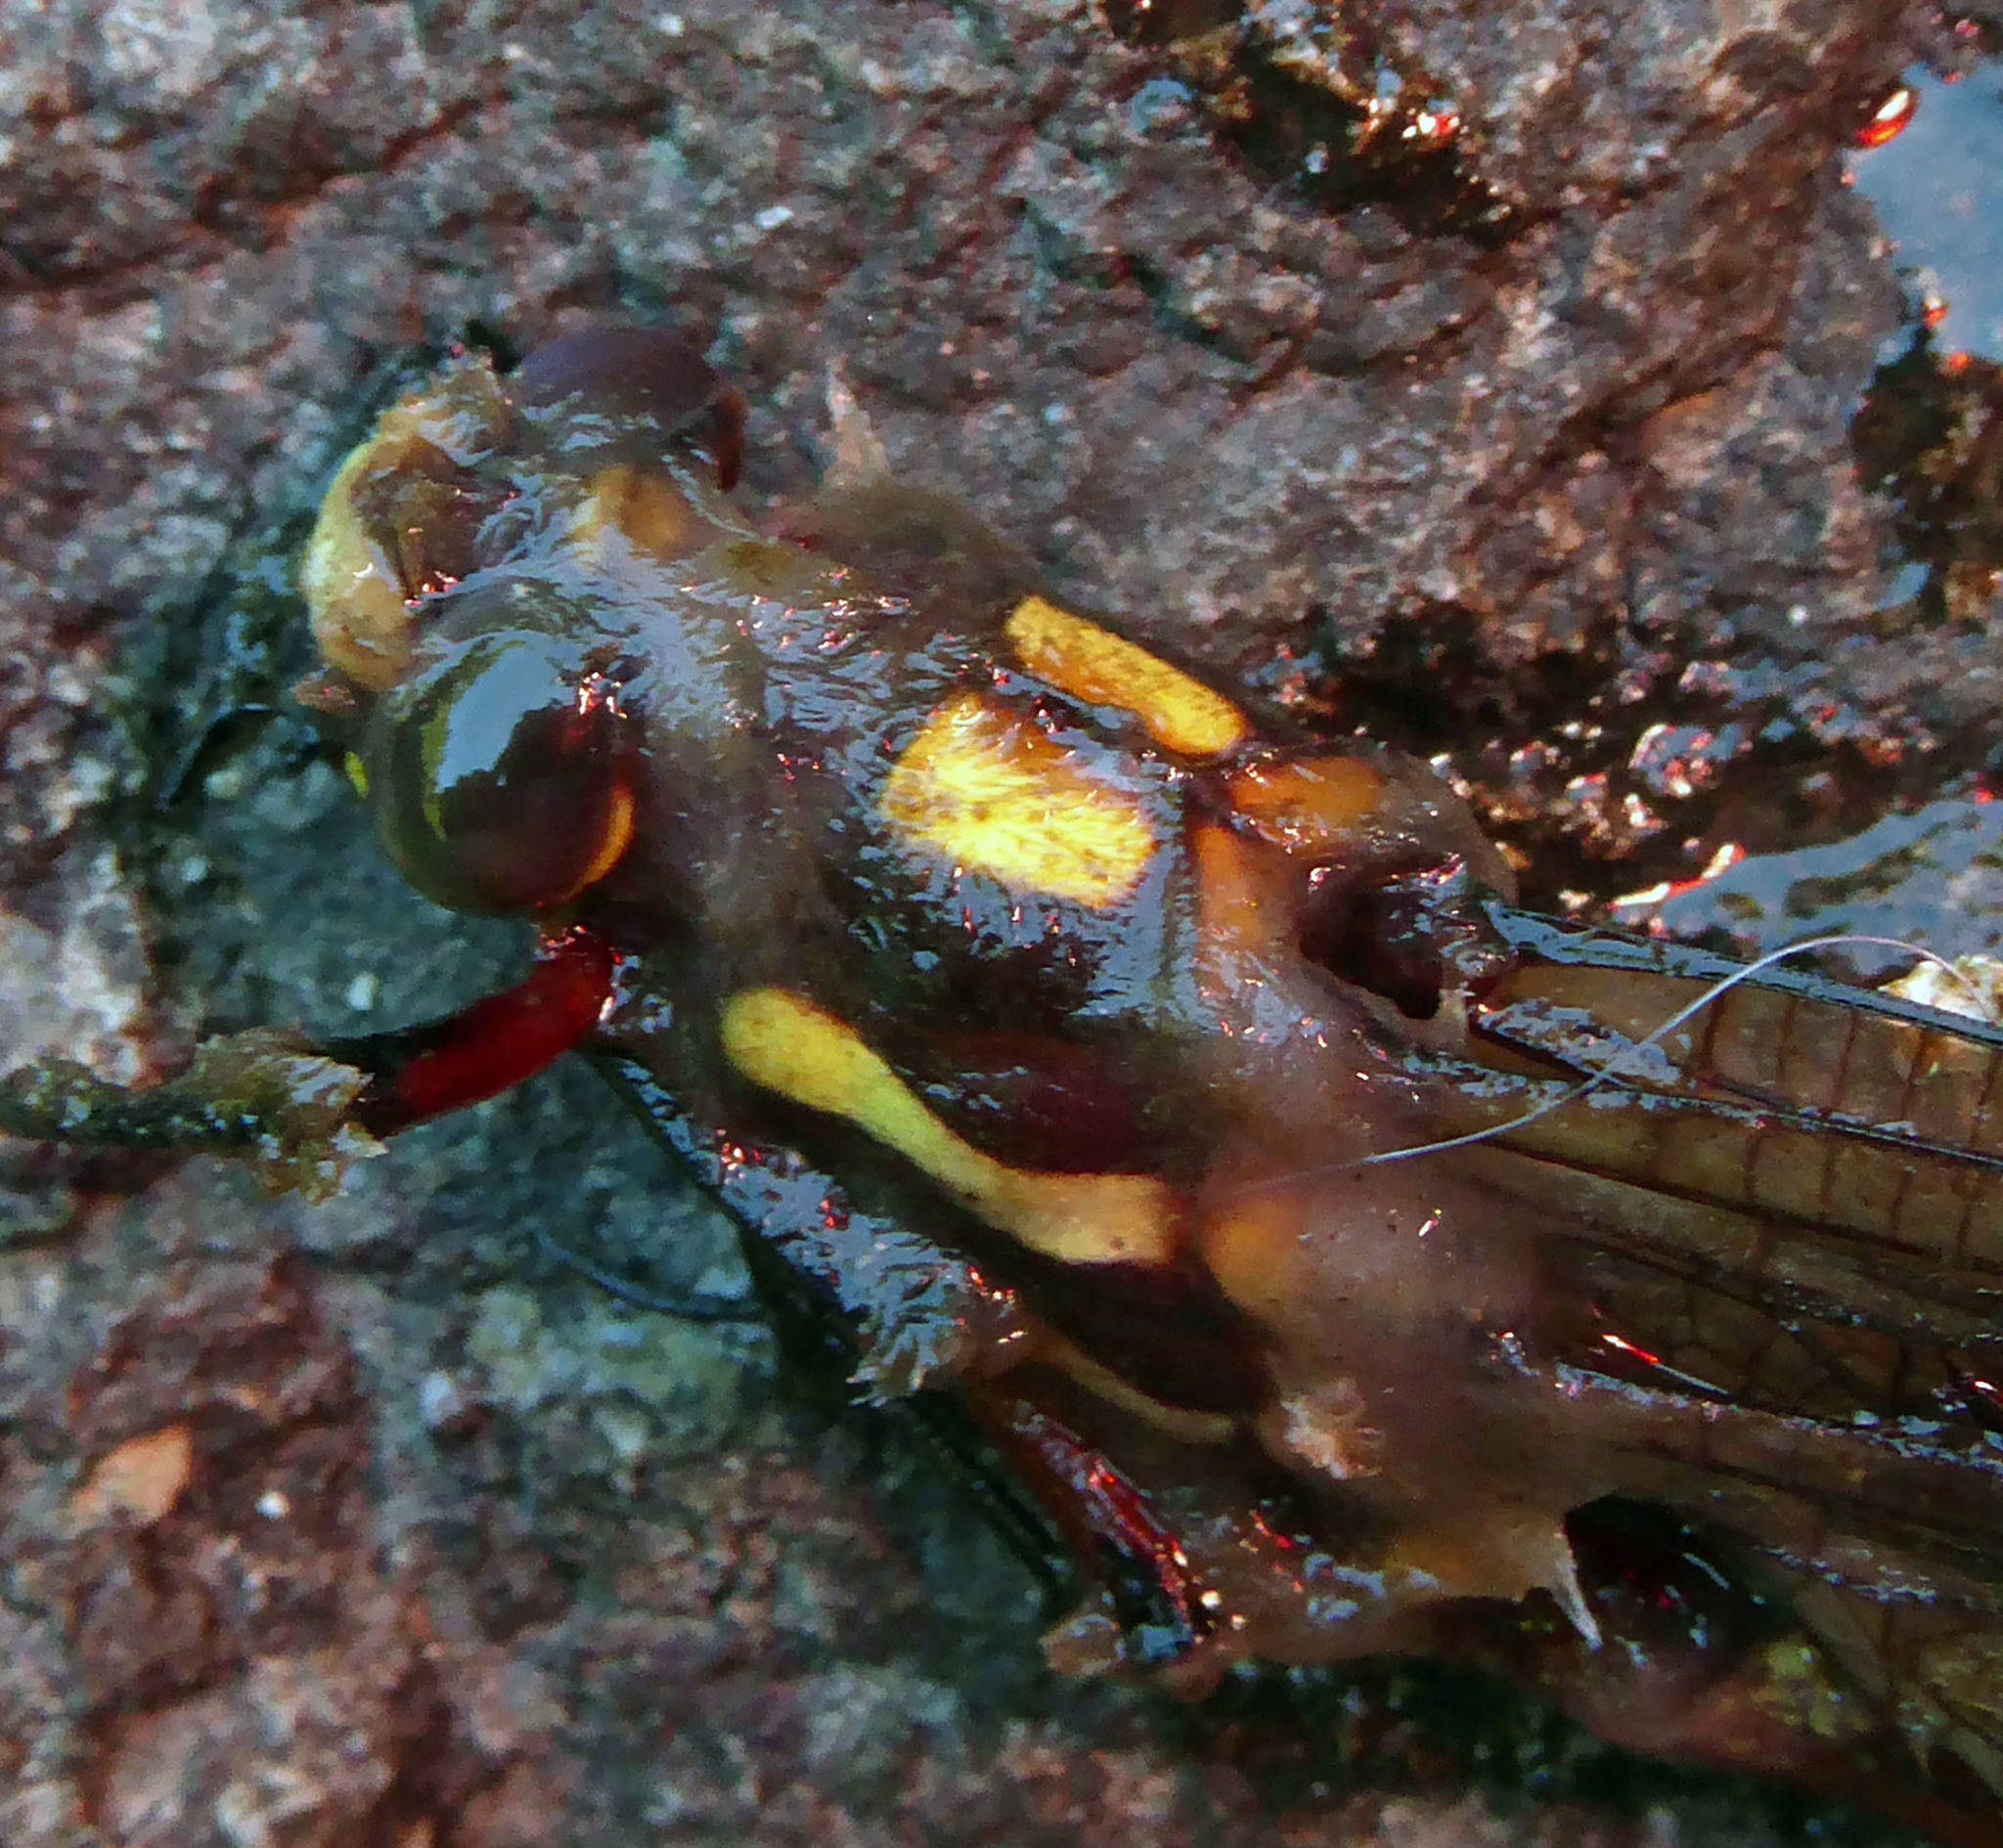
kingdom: Animalia
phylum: Arthropoda
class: Insecta
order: Odonata
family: Petaluridae
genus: Uropetala
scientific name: Uropetala carovei
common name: Bush giant dragonfly
